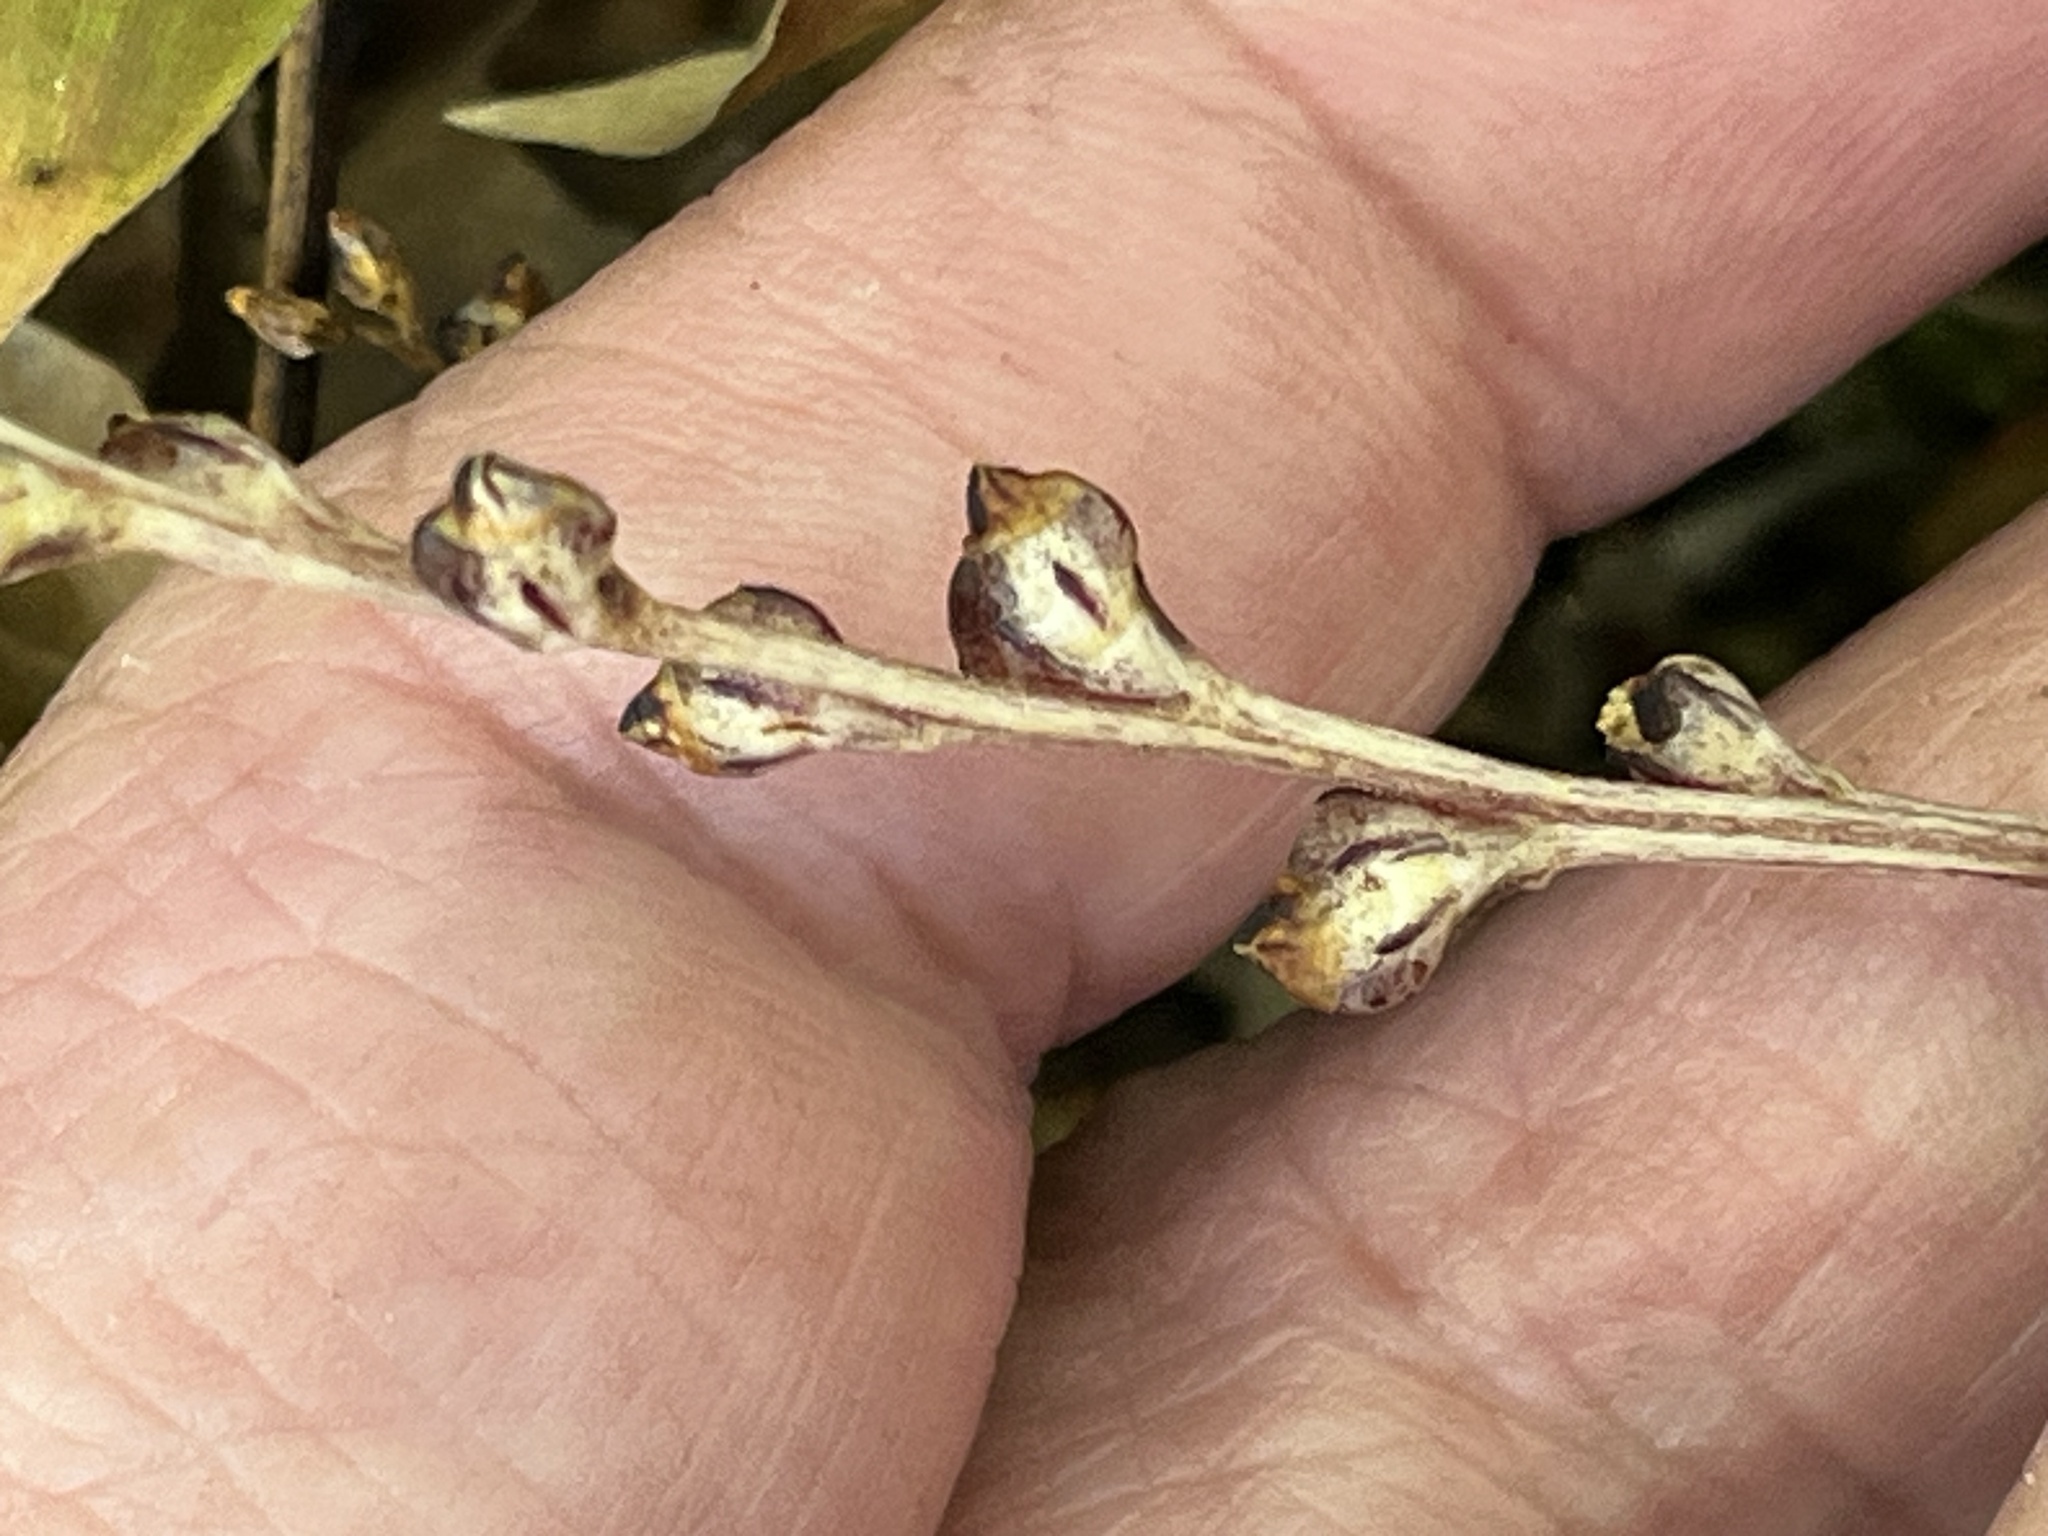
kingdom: Plantae
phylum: Tracheophyta
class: Magnoliopsida
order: Lamiales
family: Orobanchaceae
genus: Epifagus
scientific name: Epifagus virginiana
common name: Beechdrops
